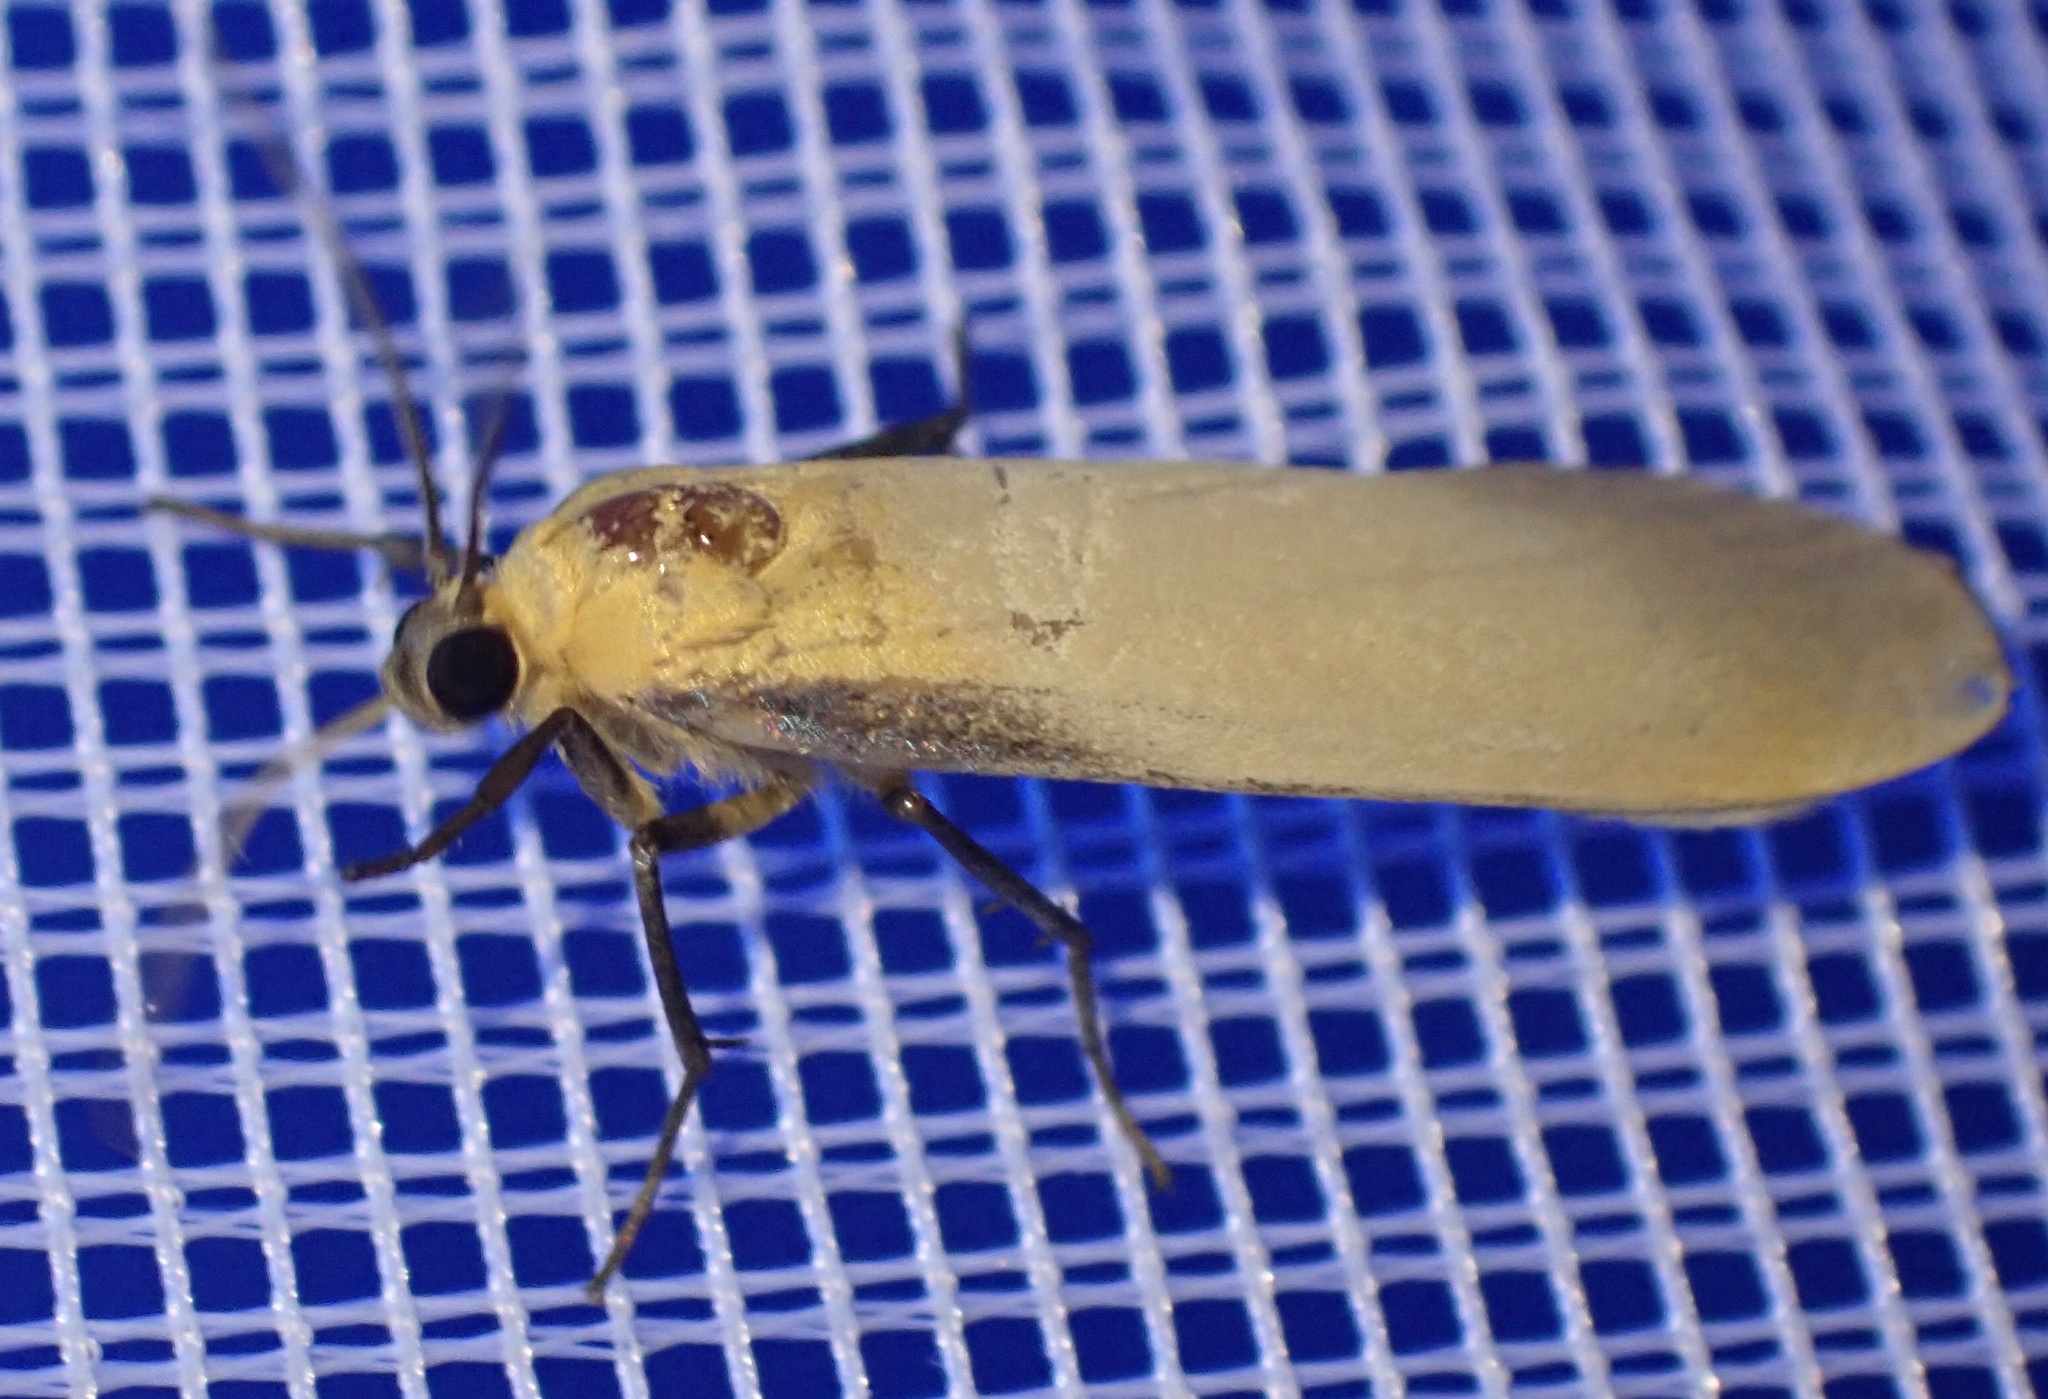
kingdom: Animalia
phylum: Arthropoda
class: Insecta
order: Lepidoptera
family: Erebidae
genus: Katha
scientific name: Katha depressa
